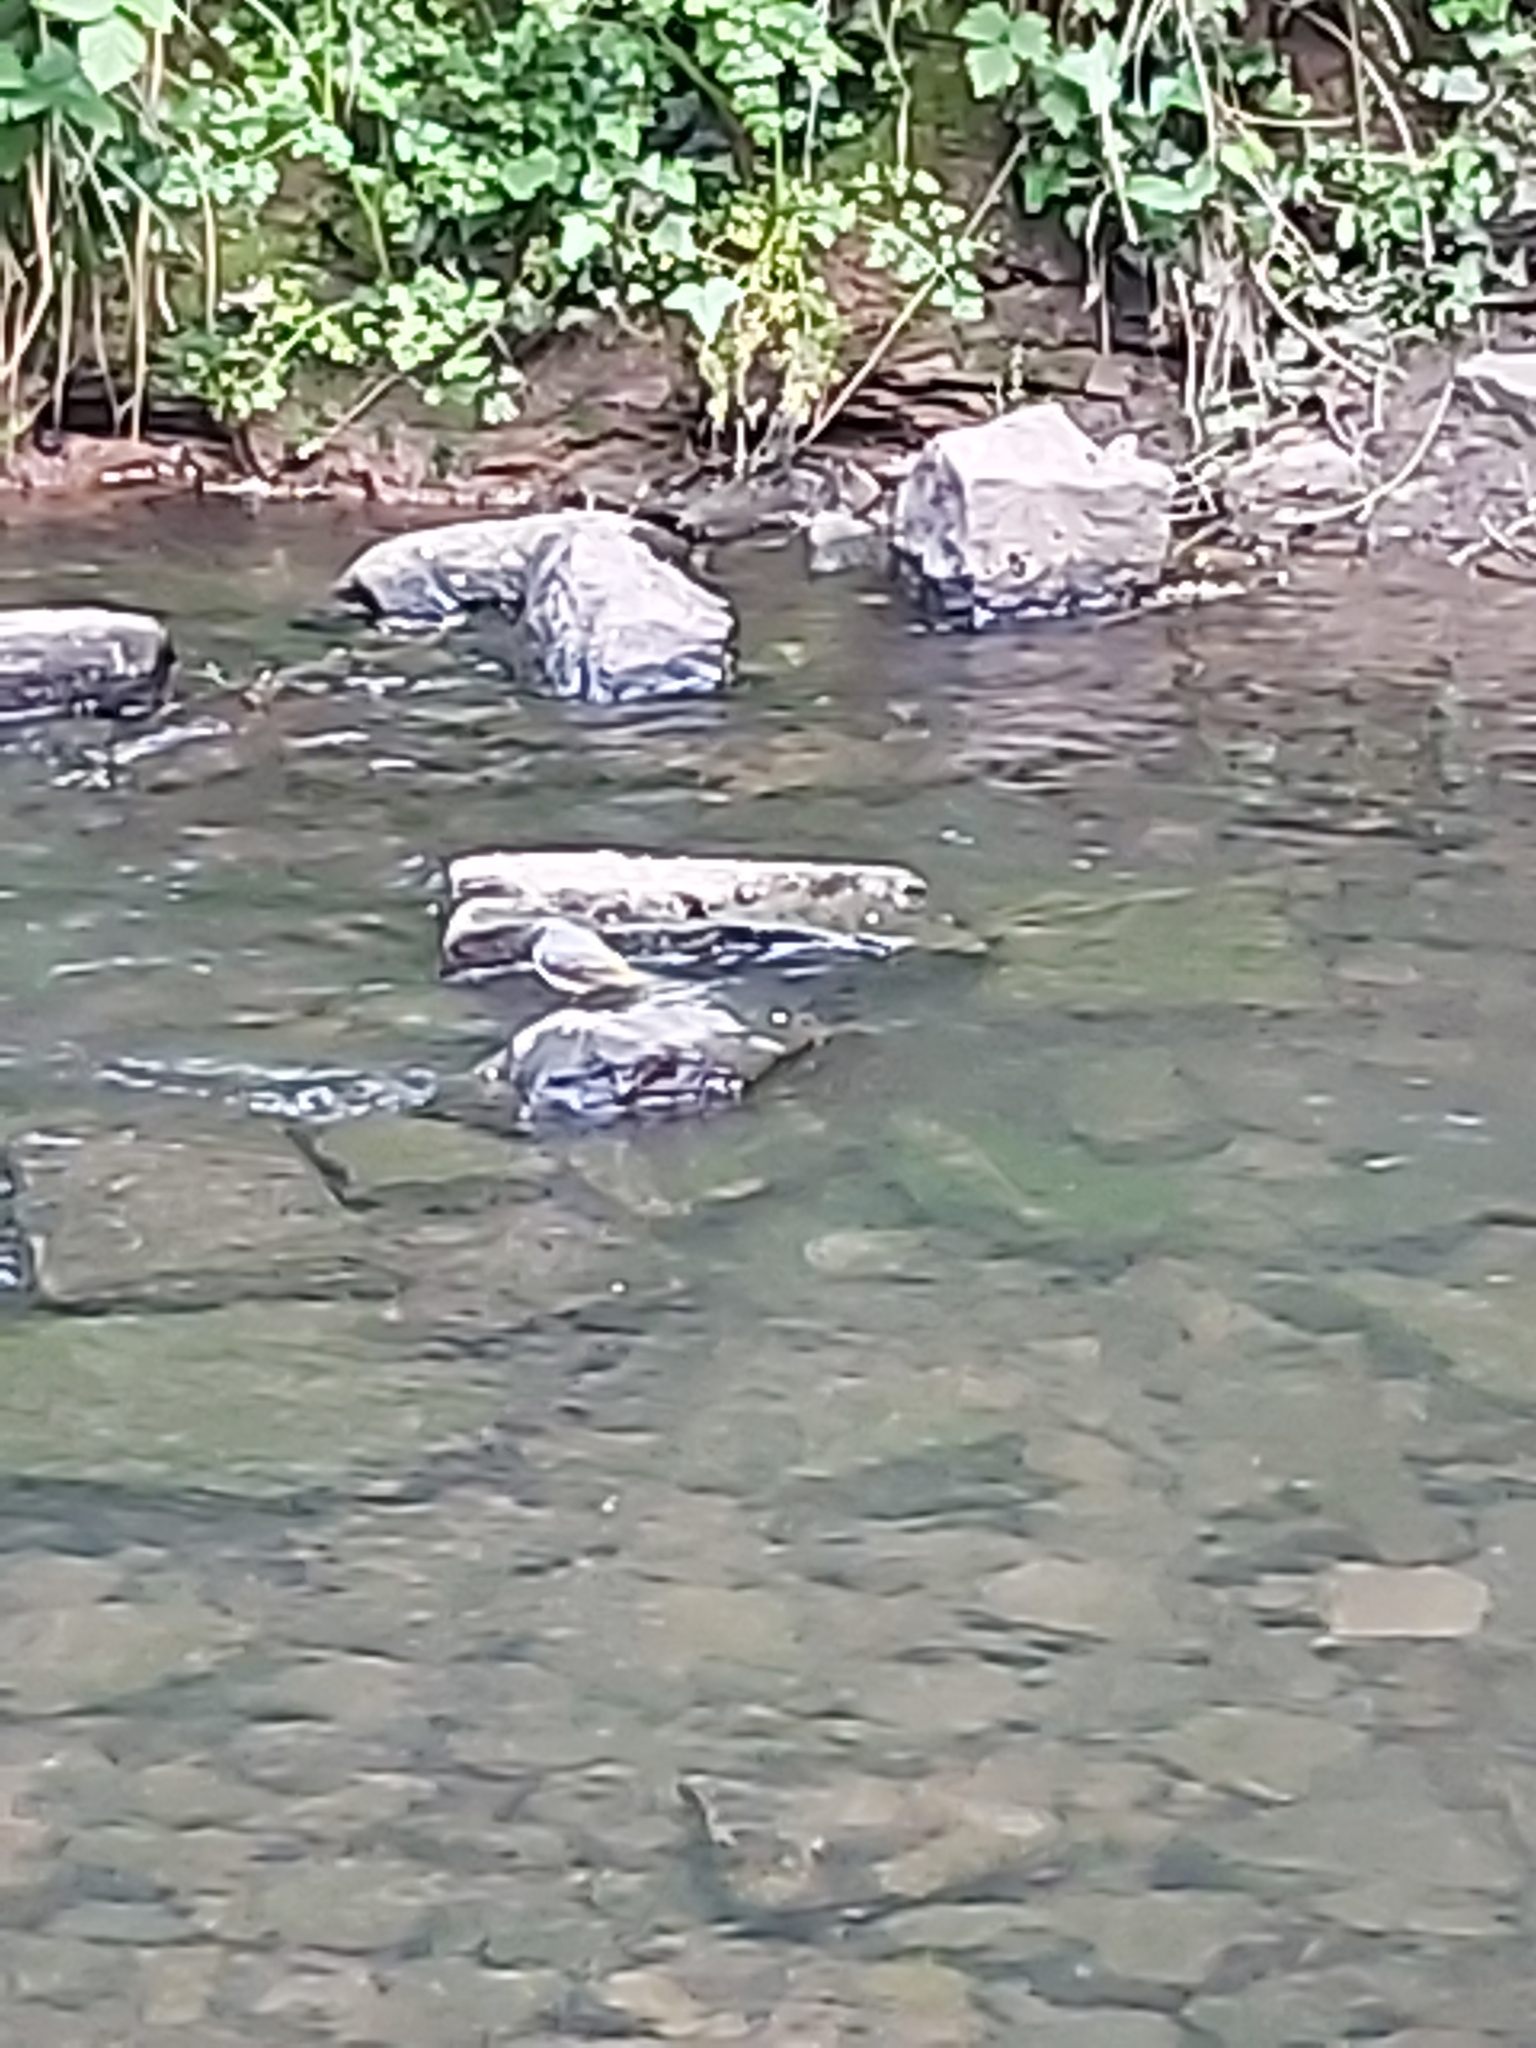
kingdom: Animalia
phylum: Chordata
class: Aves
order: Passeriformes
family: Motacillidae
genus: Motacilla
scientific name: Motacilla cinerea
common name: Grey wagtail
